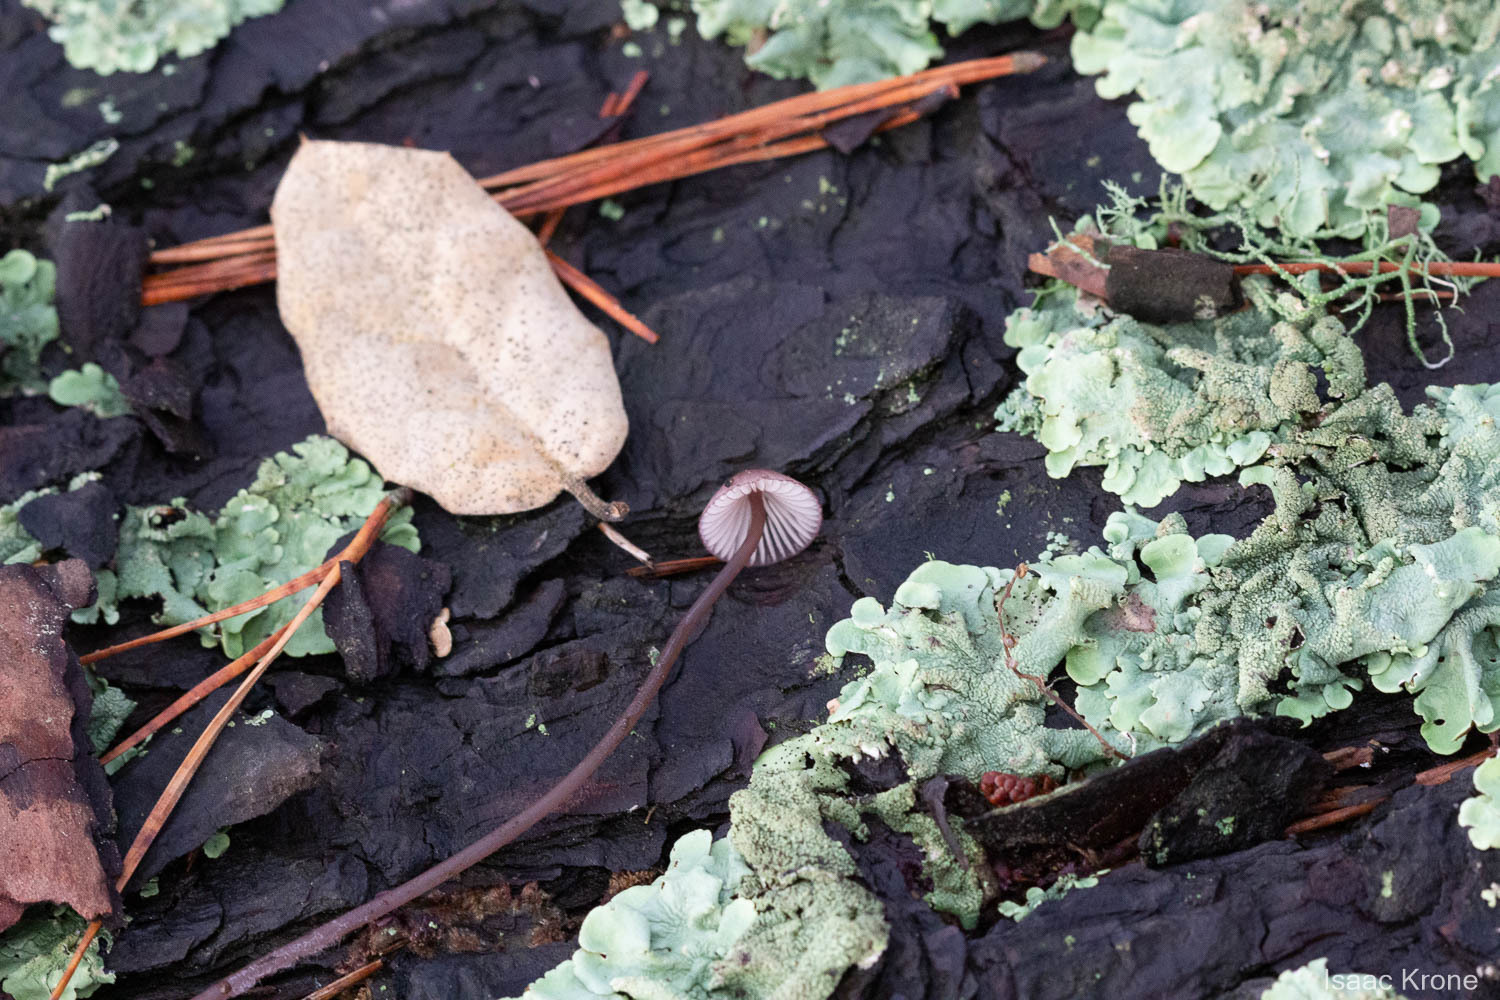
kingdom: Fungi
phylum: Basidiomycota
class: Agaricomycetes
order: Agaricales
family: Mycenaceae
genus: Mycena
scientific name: Mycena purpureofusca
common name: Purple edge bonnet
